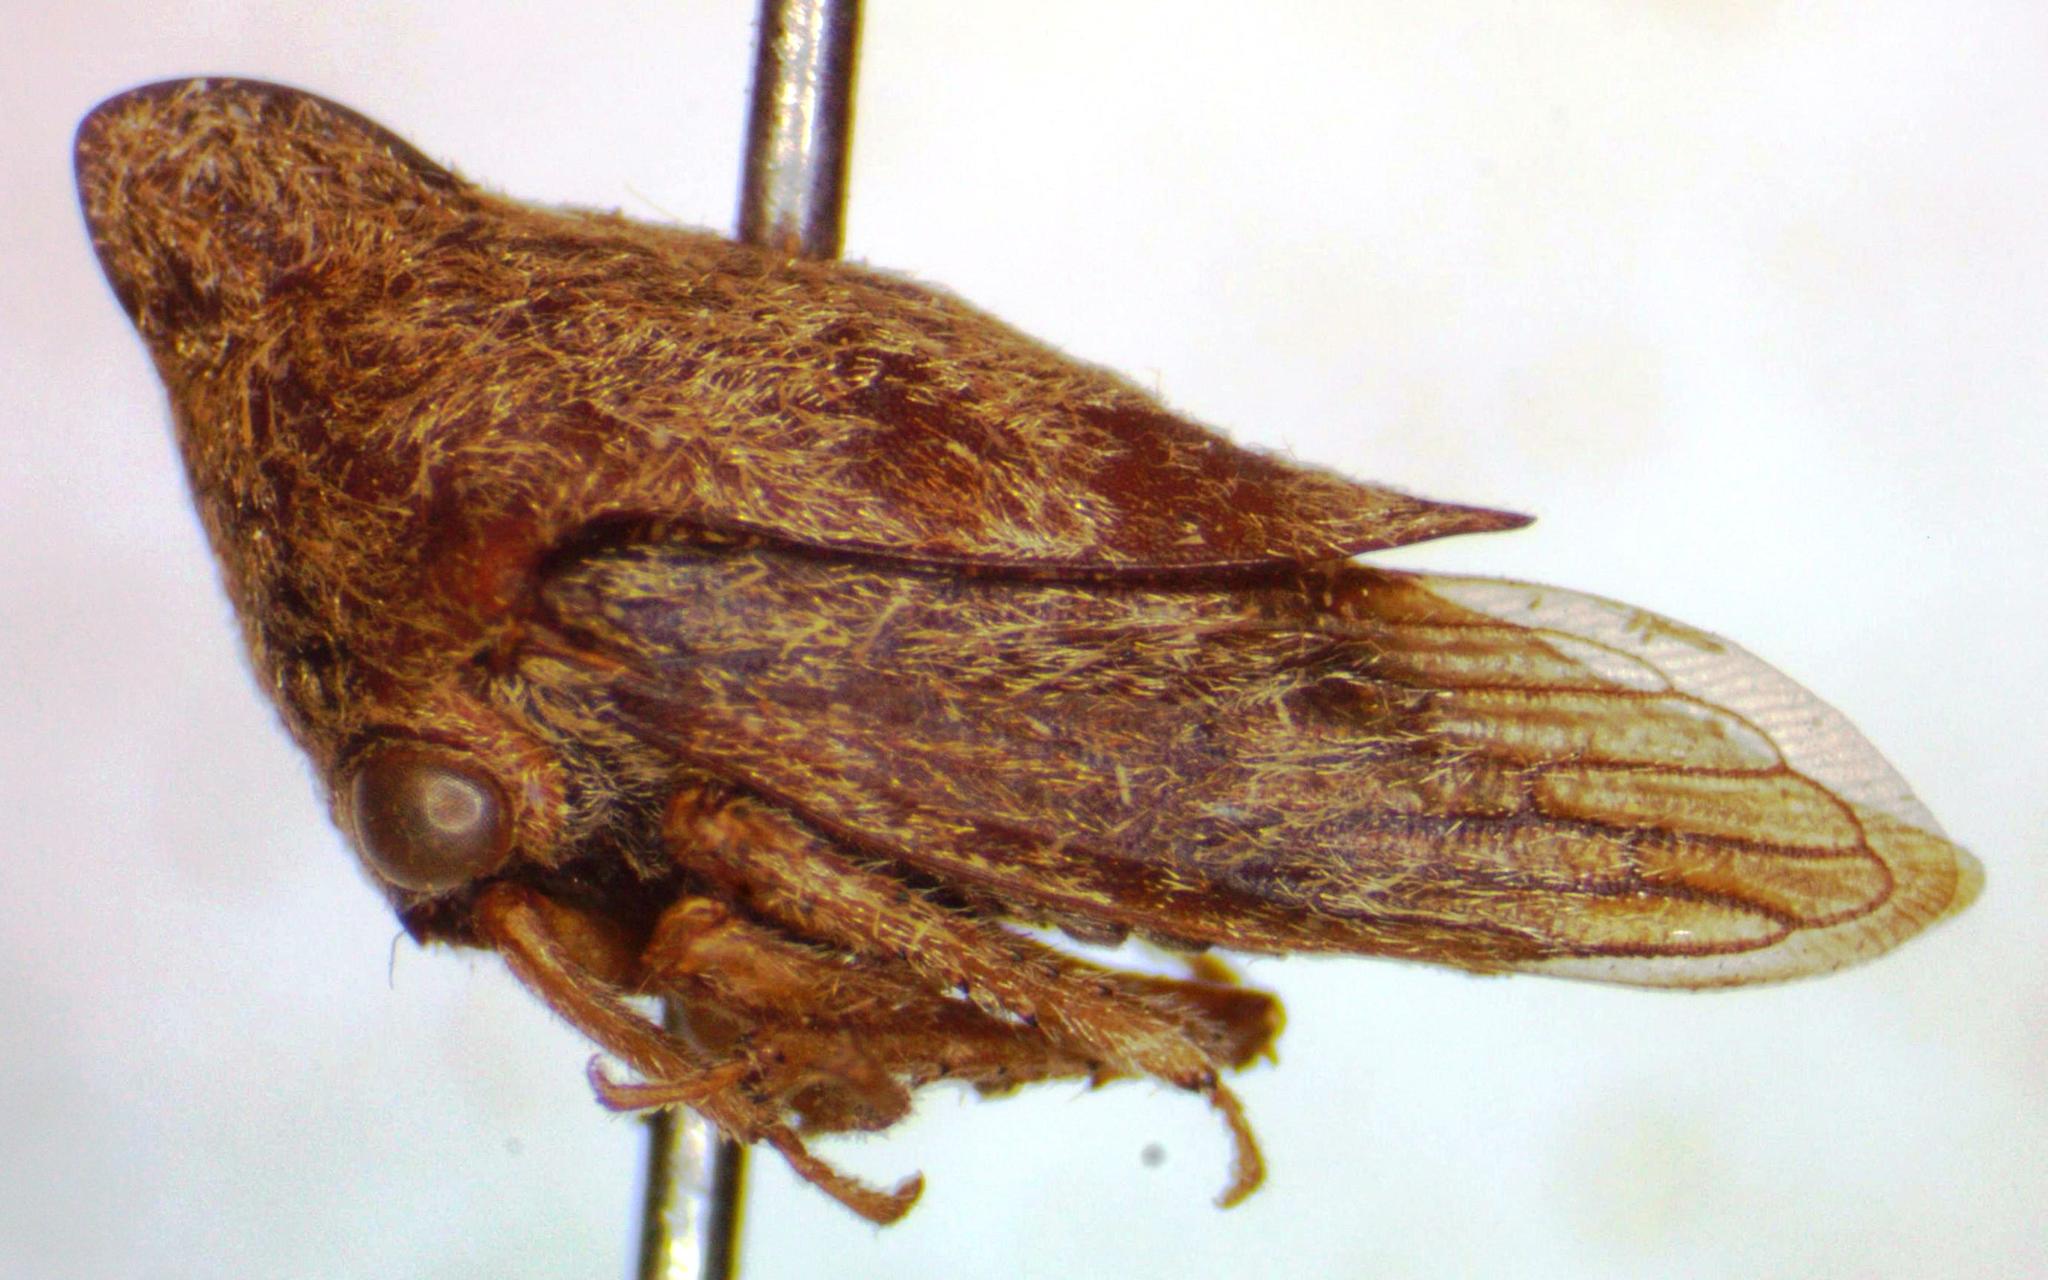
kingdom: Animalia
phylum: Arthropoda
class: Insecta
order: Hemiptera
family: Membracidae
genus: Calloconophora
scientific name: Calloconophora obliqua
